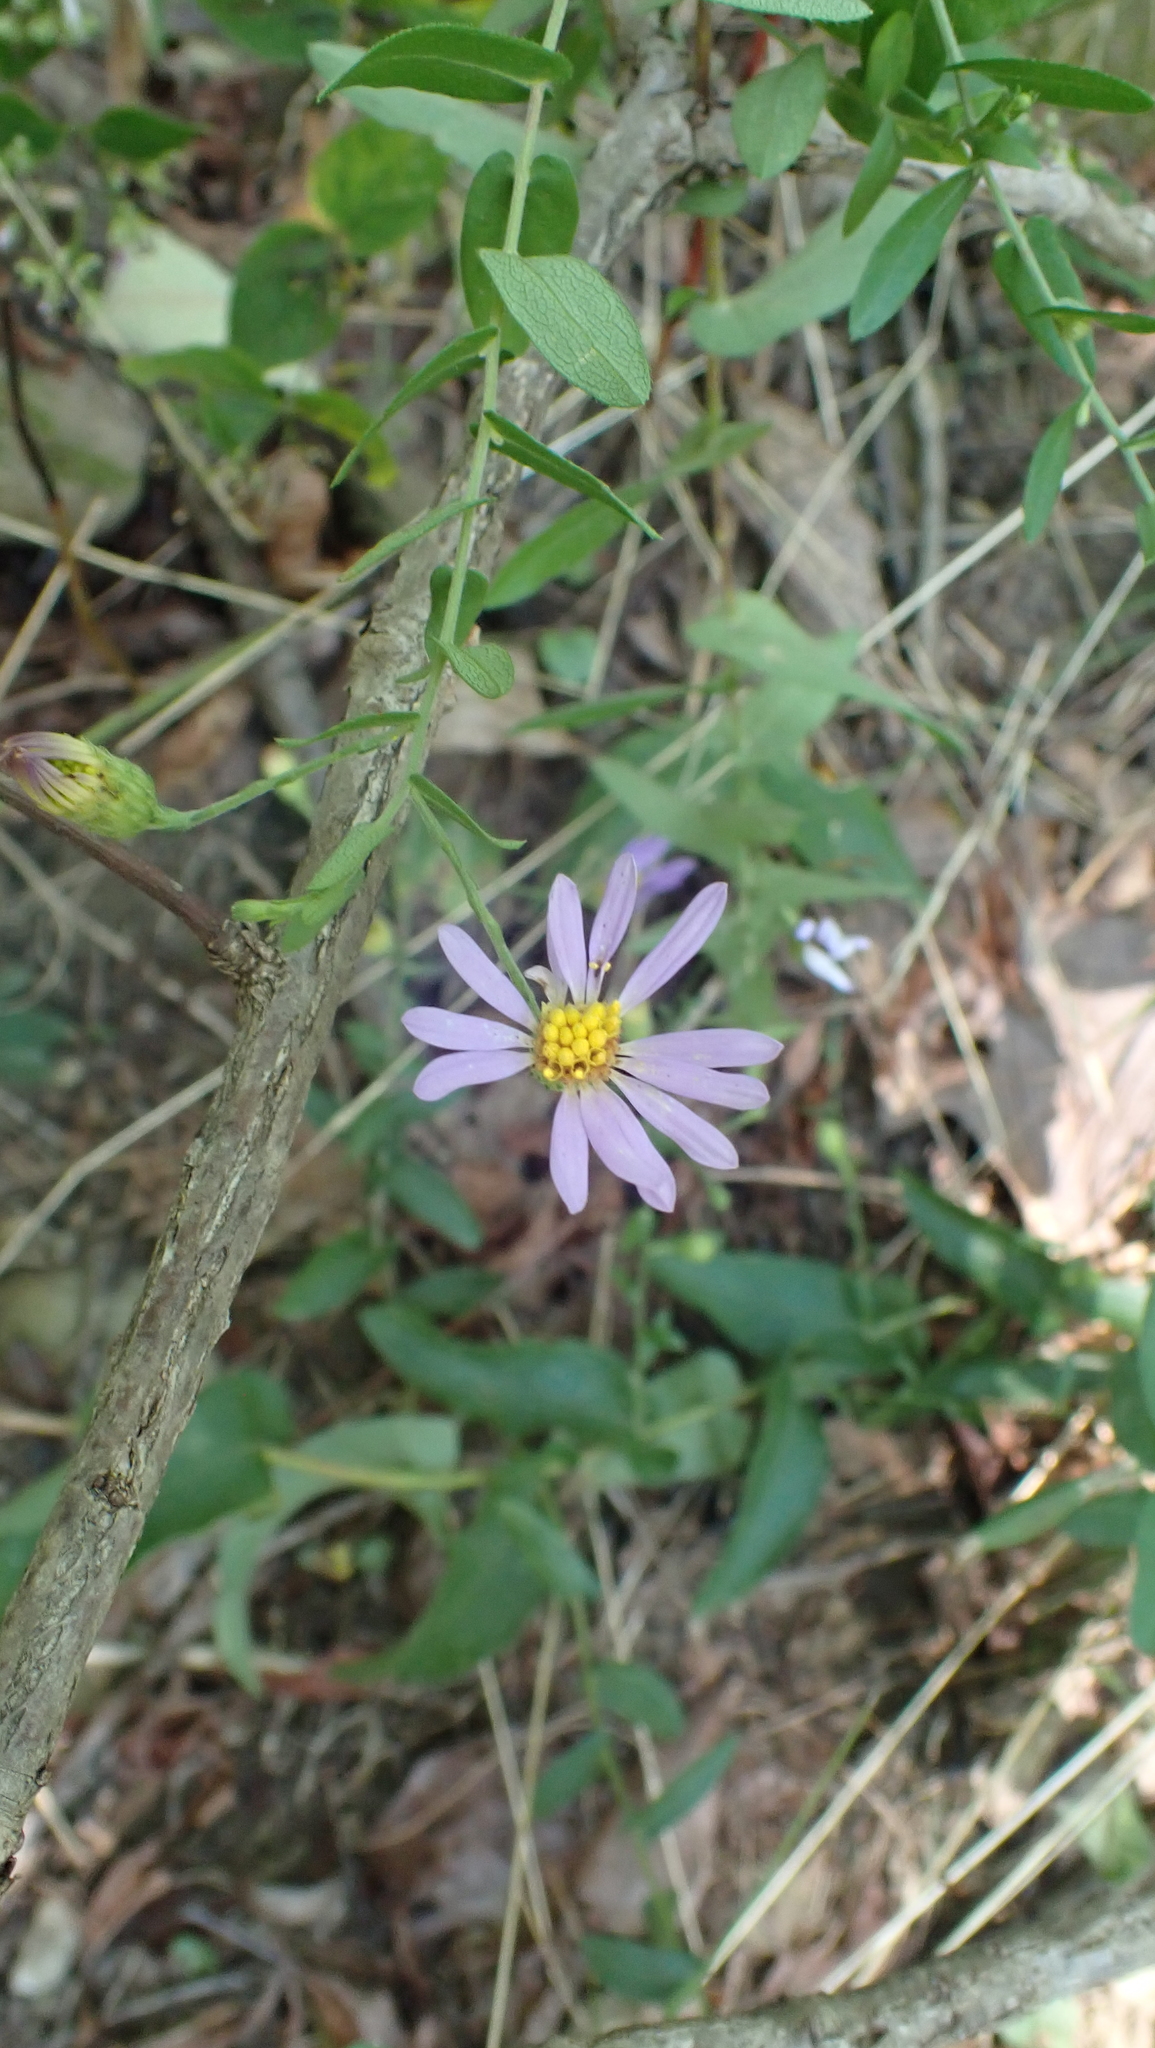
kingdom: Plantae
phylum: Tracheophyta
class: Magnoliopsida
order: Asterales
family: Asteraceae
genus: Symphyotrichum
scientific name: Symphyotrichum patens
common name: Late purple aster
